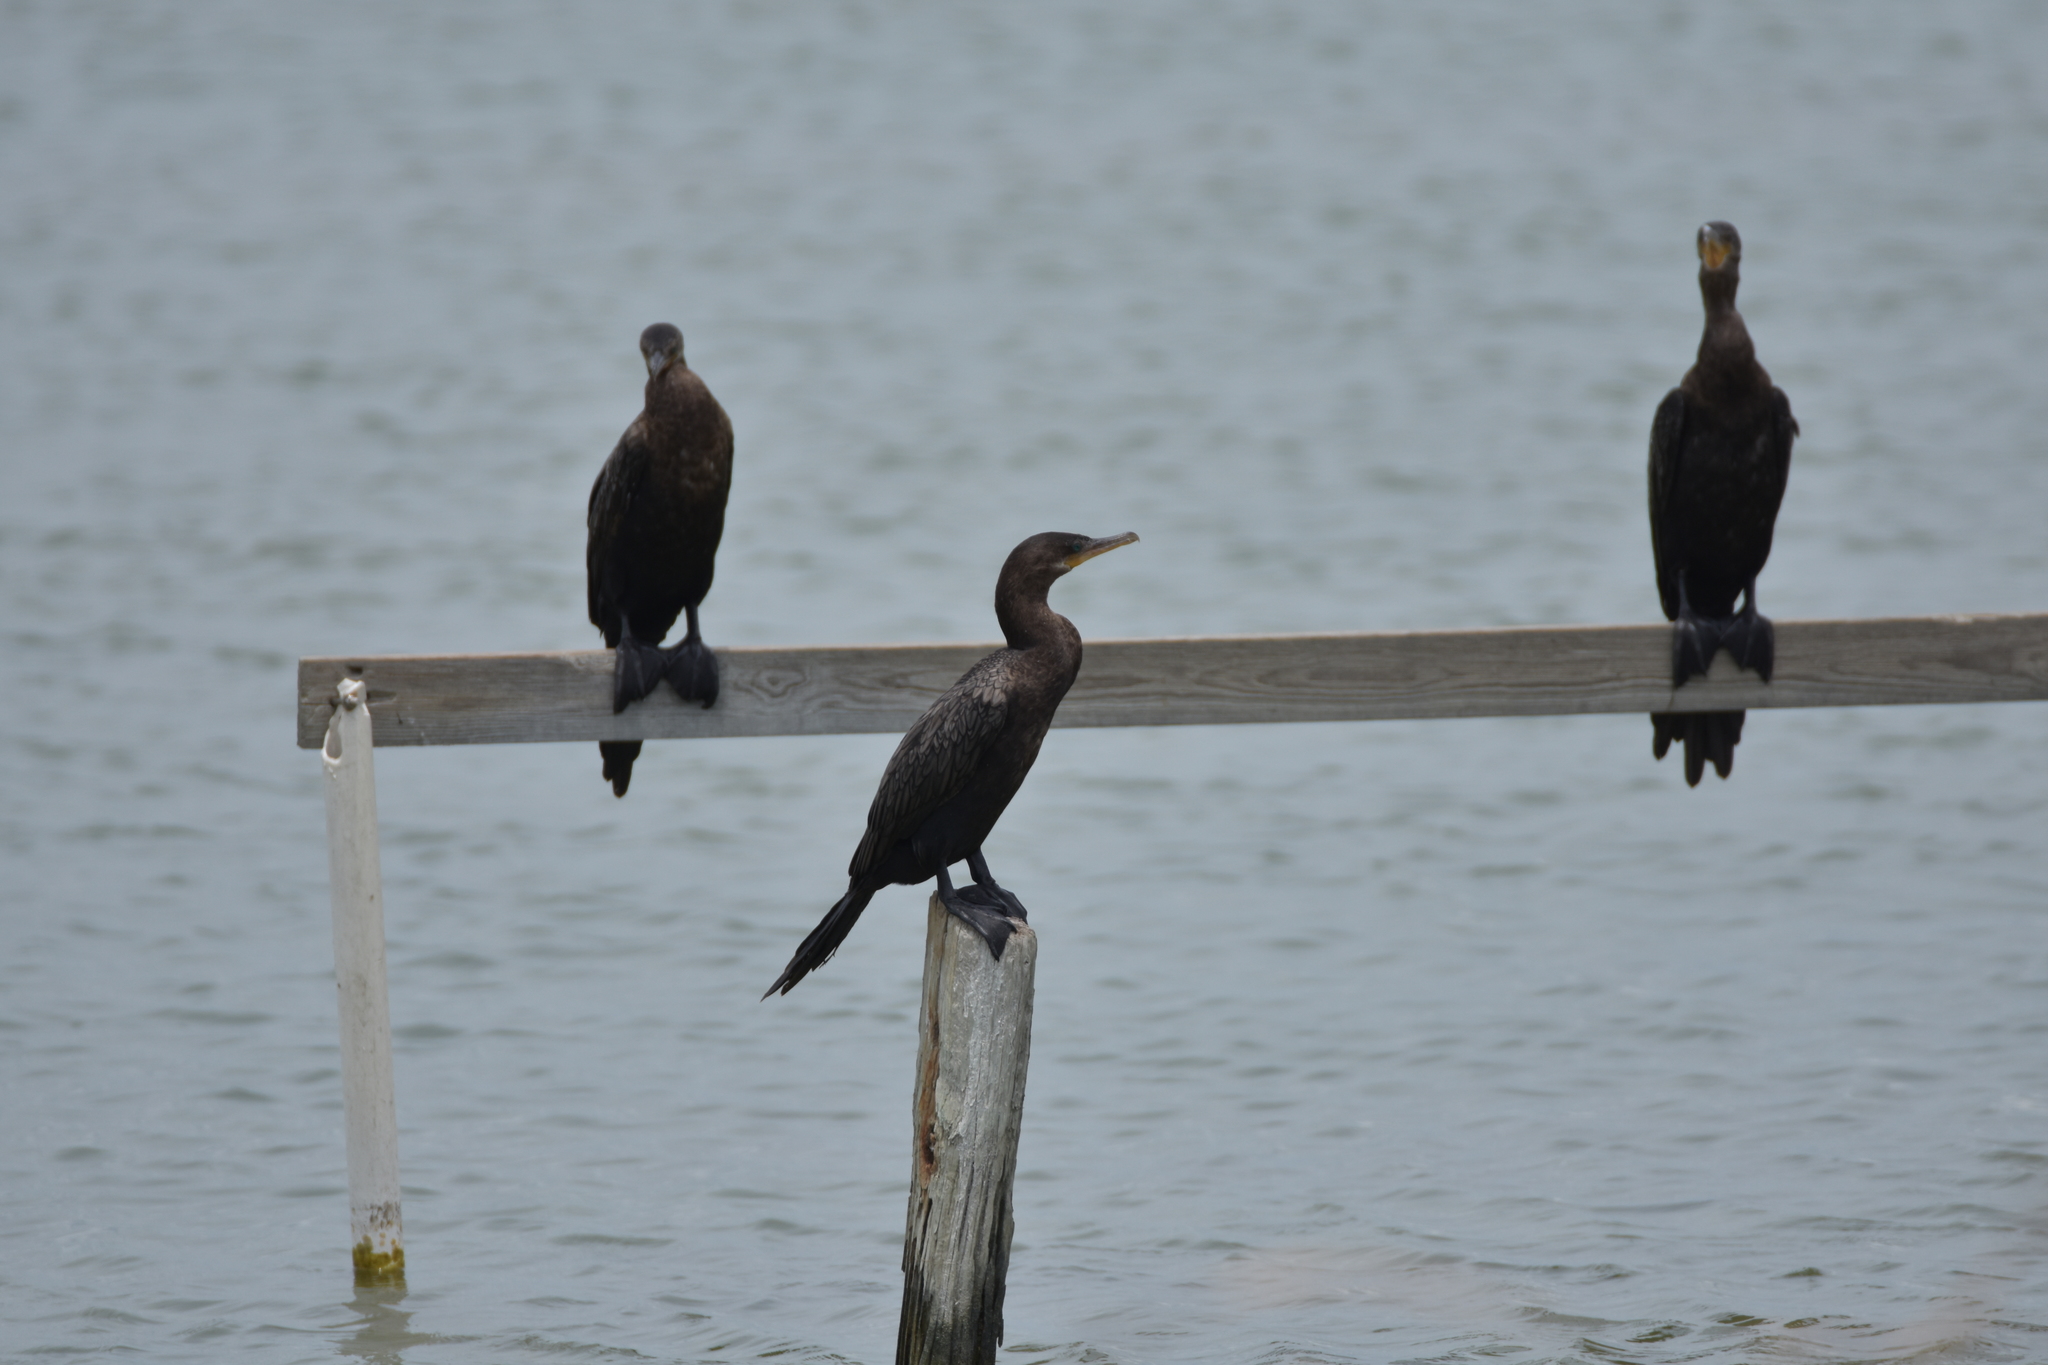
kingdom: Animalia
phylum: Chordata
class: Aves
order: Suliformes
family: Phalacrocoracidae
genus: Phalacrocorax
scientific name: Phalacrocorax brasilianus
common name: Neotropic cormorant
